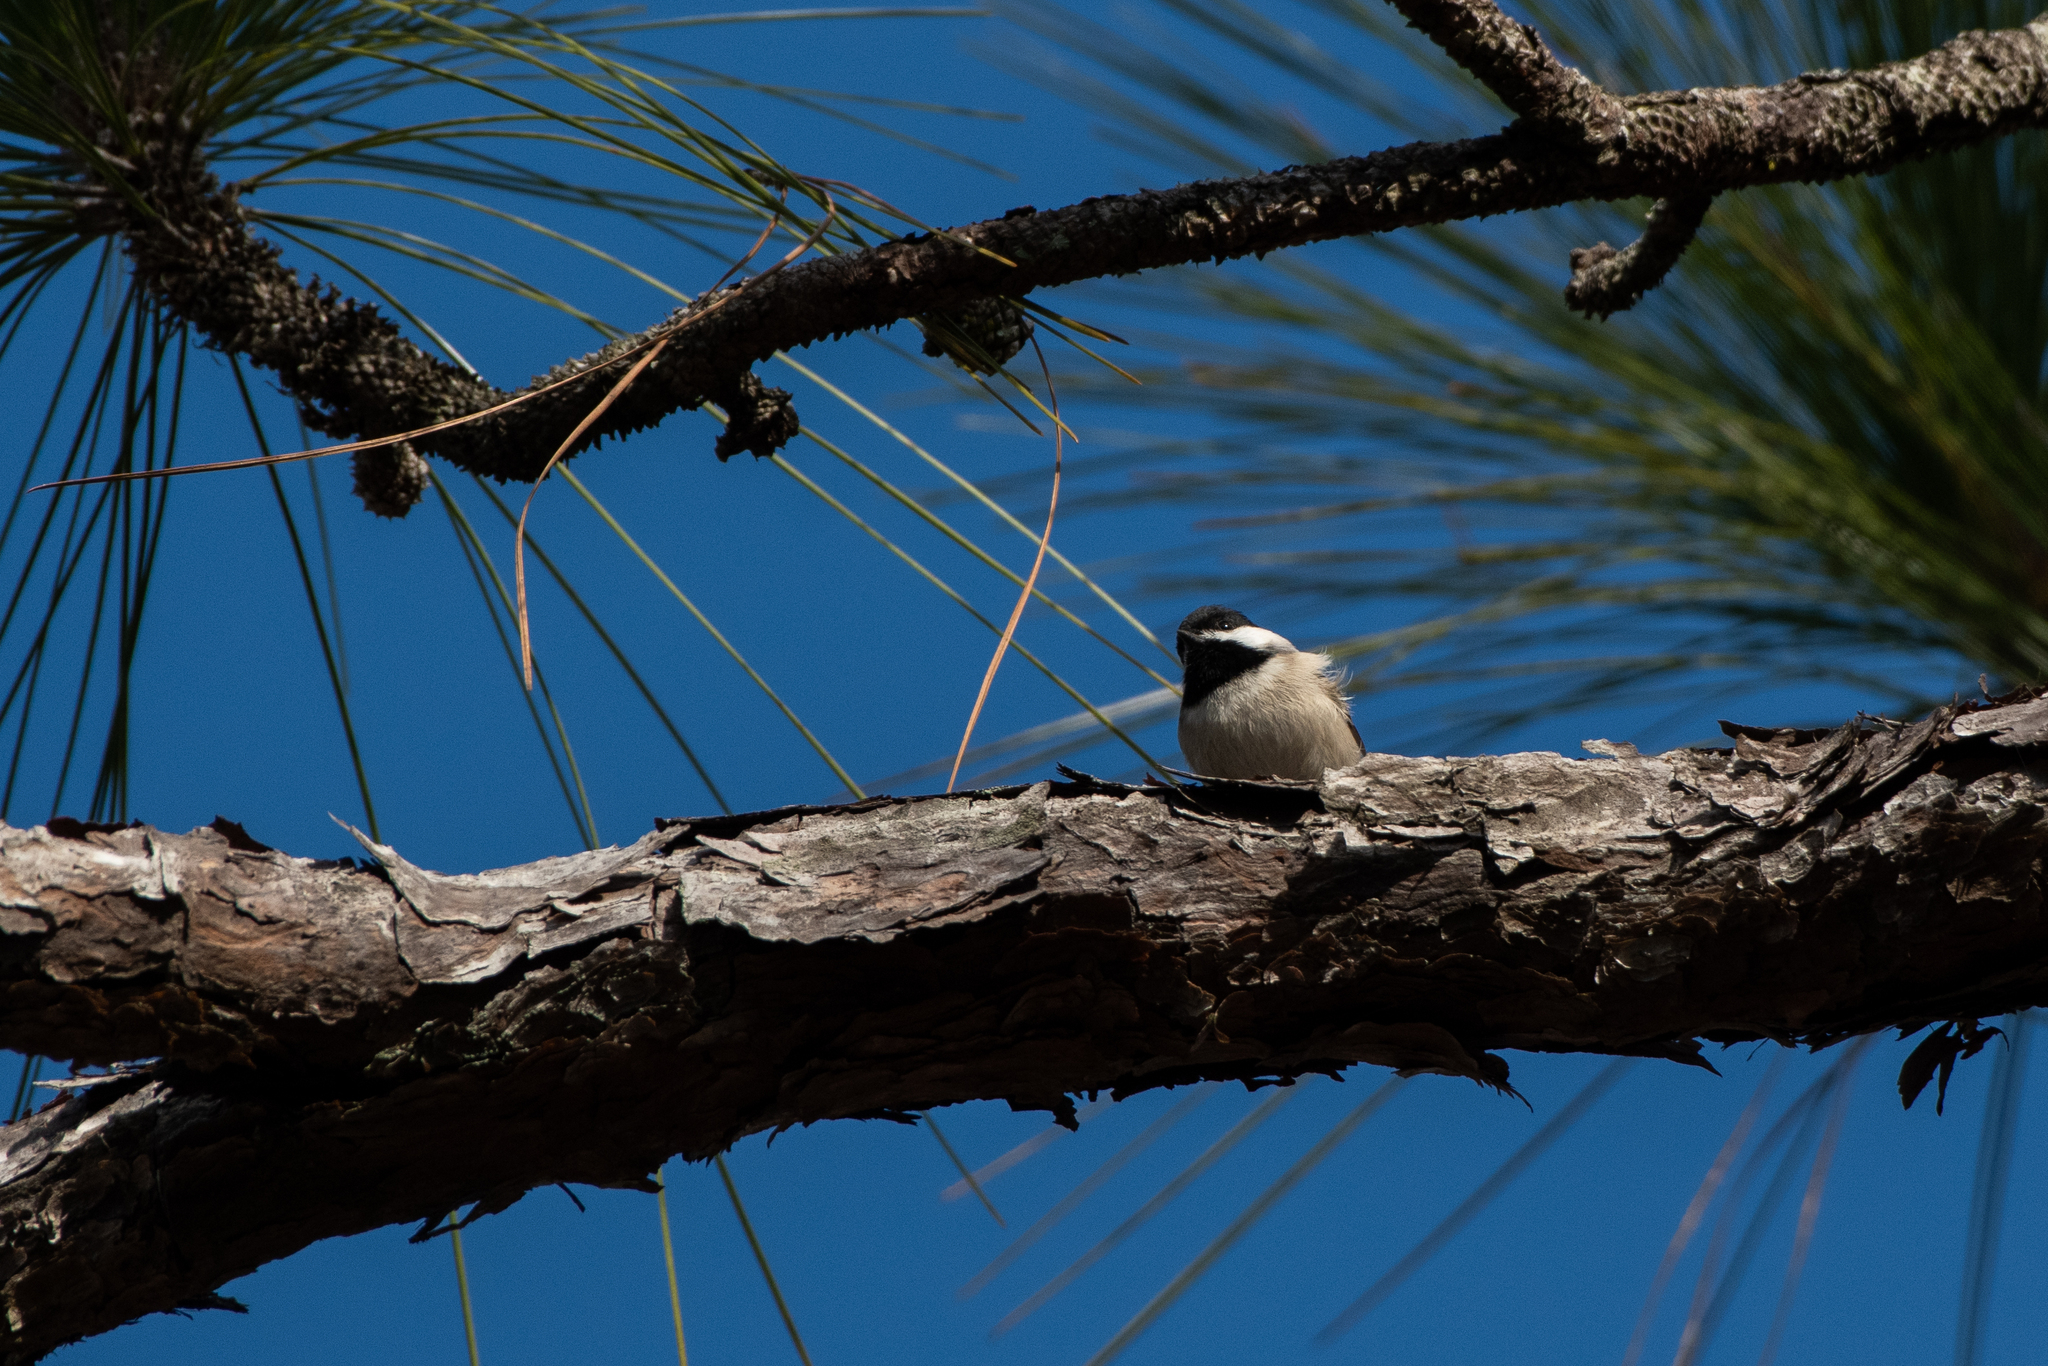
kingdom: Animalia
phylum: Chordata
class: Aves
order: Passeriformes
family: Paridae
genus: Poecile
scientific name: Poecile carolinensis
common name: Carolina chickadee
